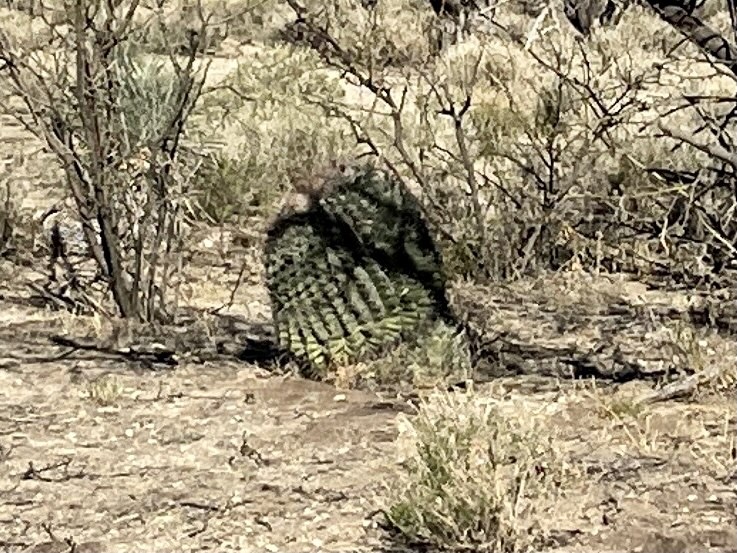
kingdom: Plantae
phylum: Tracheophyta
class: Magnoliopsida
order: Caryophyllales
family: Cactaceae
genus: Ferocactus
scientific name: Ferocactus wislizeni
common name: Candy barrel cactus
